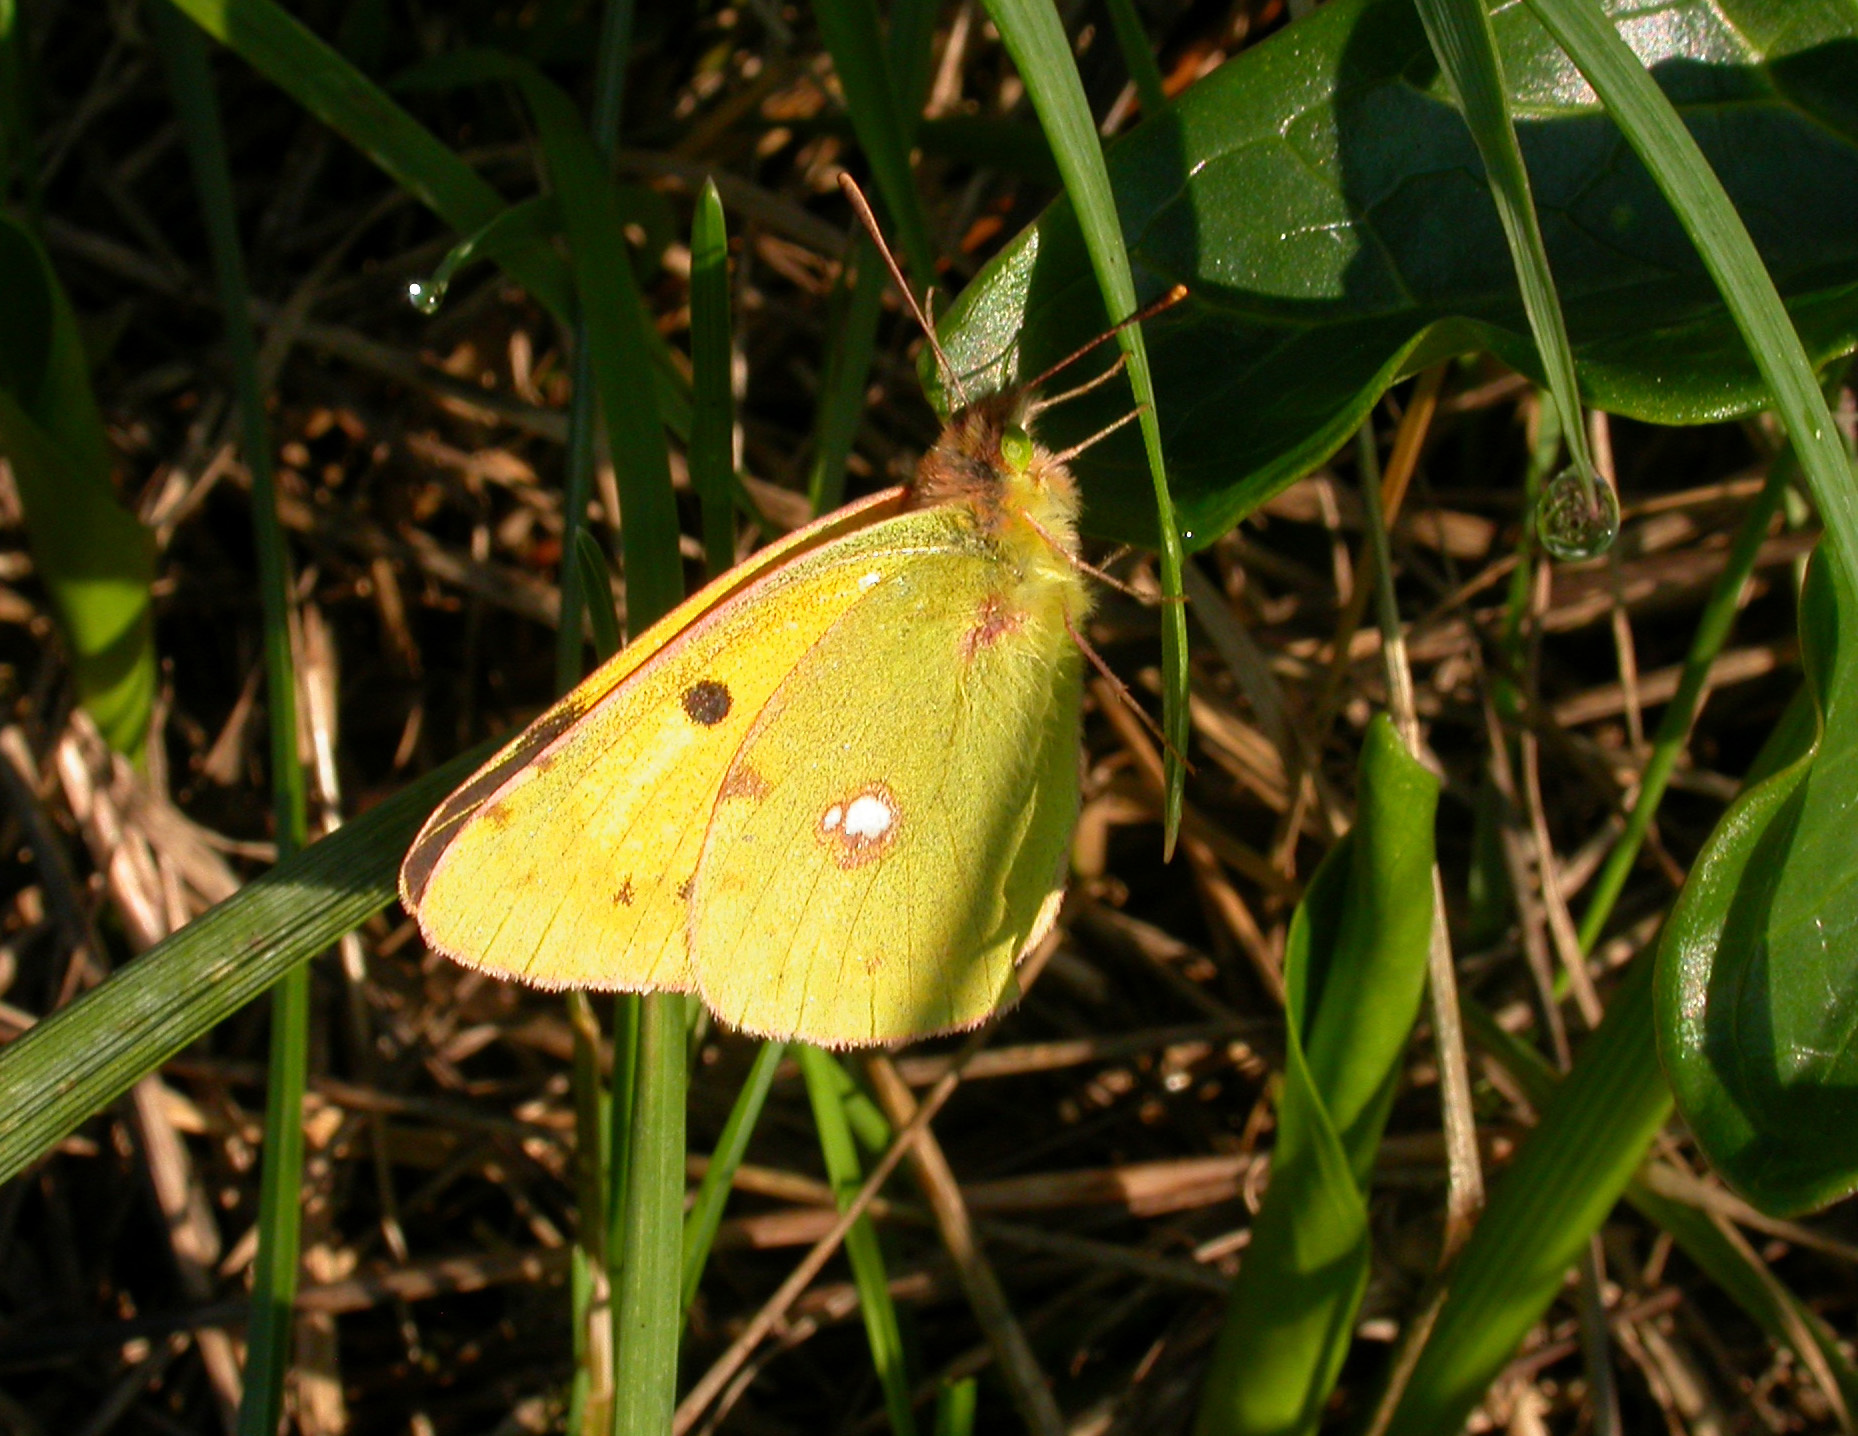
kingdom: Animalia
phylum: Arthropoda
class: Insecta
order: Lepidoptera
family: Pieridae
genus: Colias
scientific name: Colias croceus
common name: Clouded yellow
